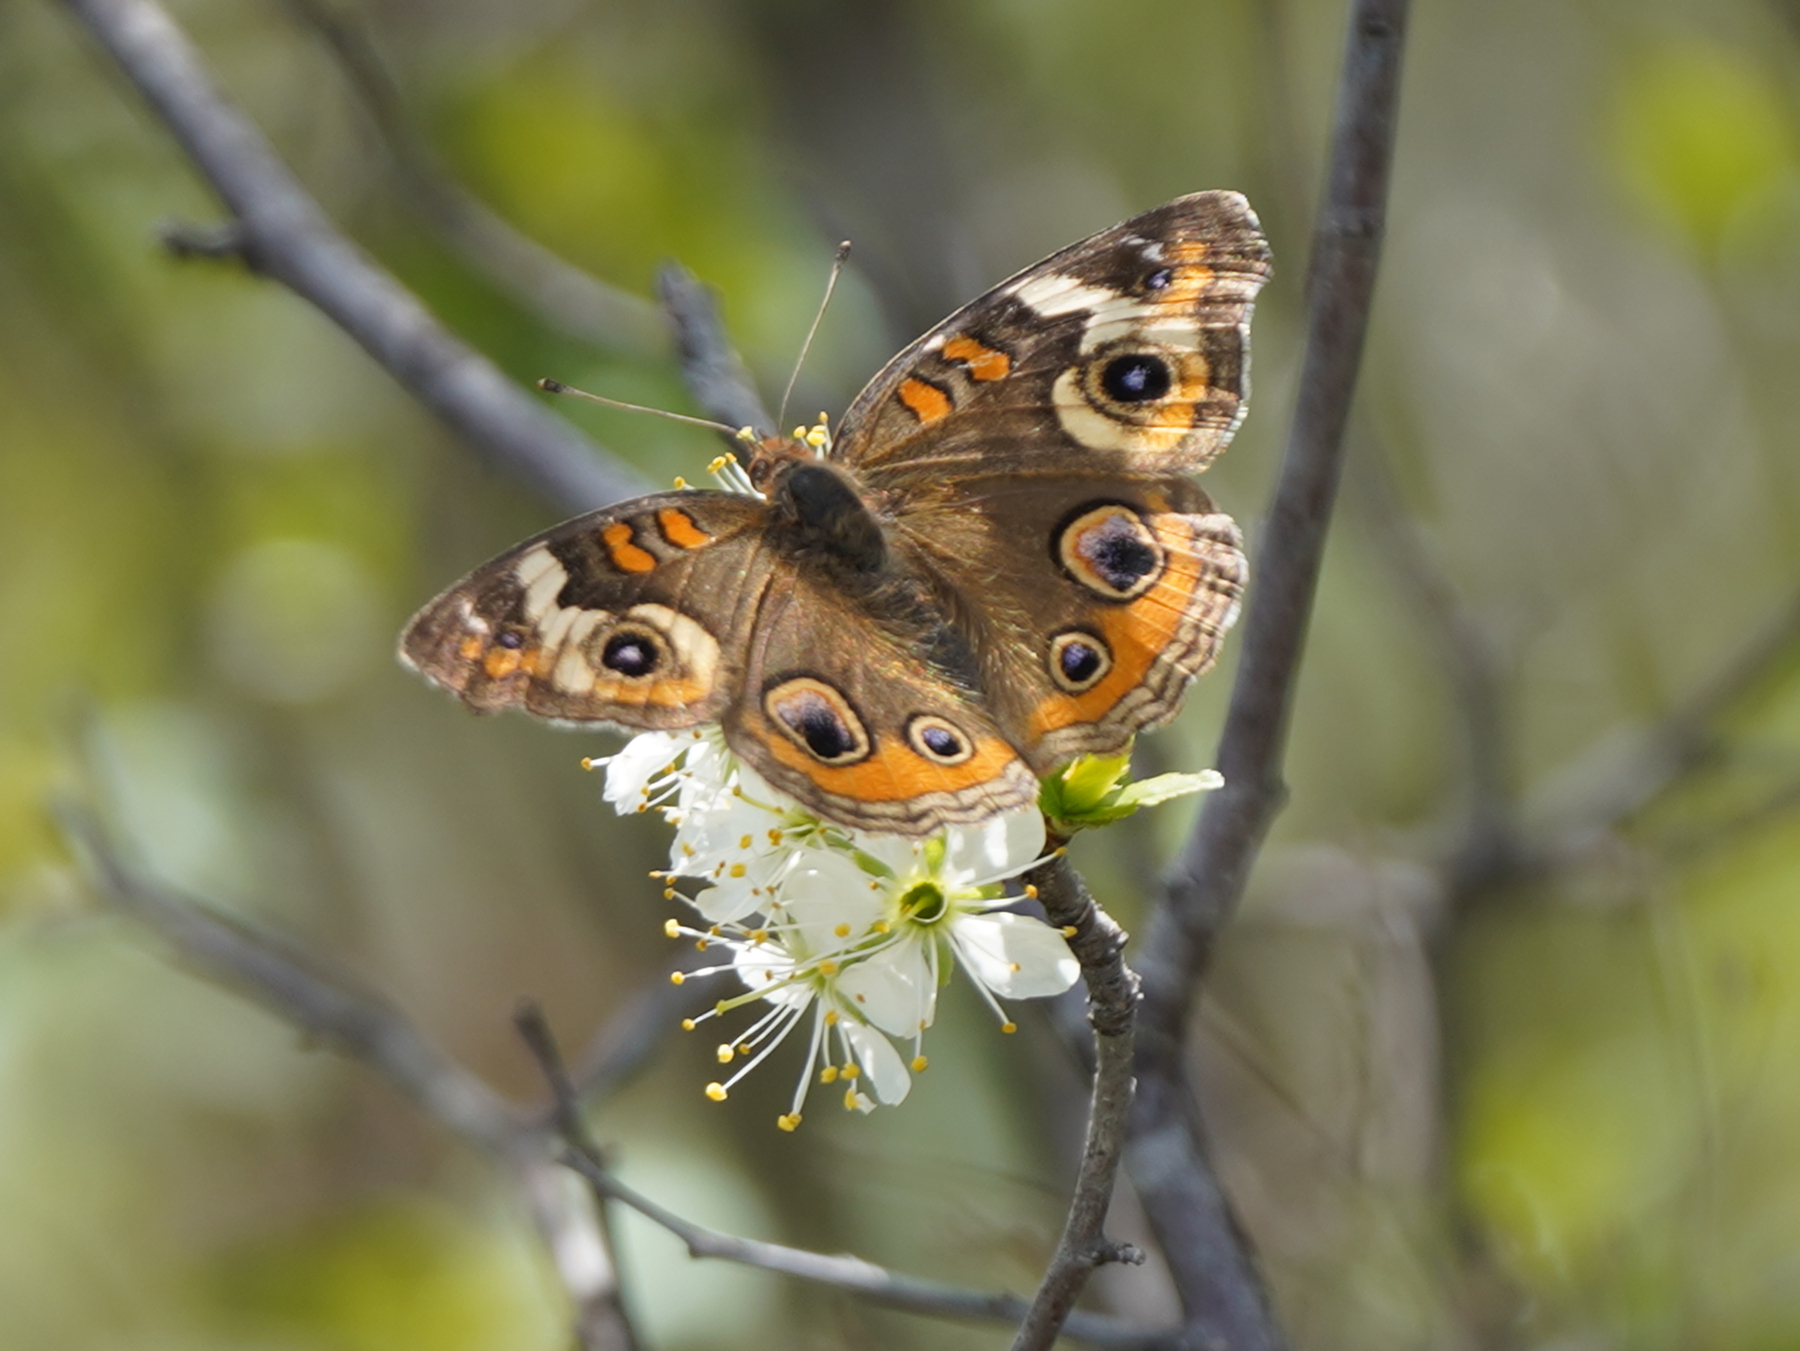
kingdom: Animalia
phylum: Arthropoda
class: Insecta
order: Lepidoptera
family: Nymphalidae
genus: Junonia
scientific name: Junonia coenia
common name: Common buckeye
